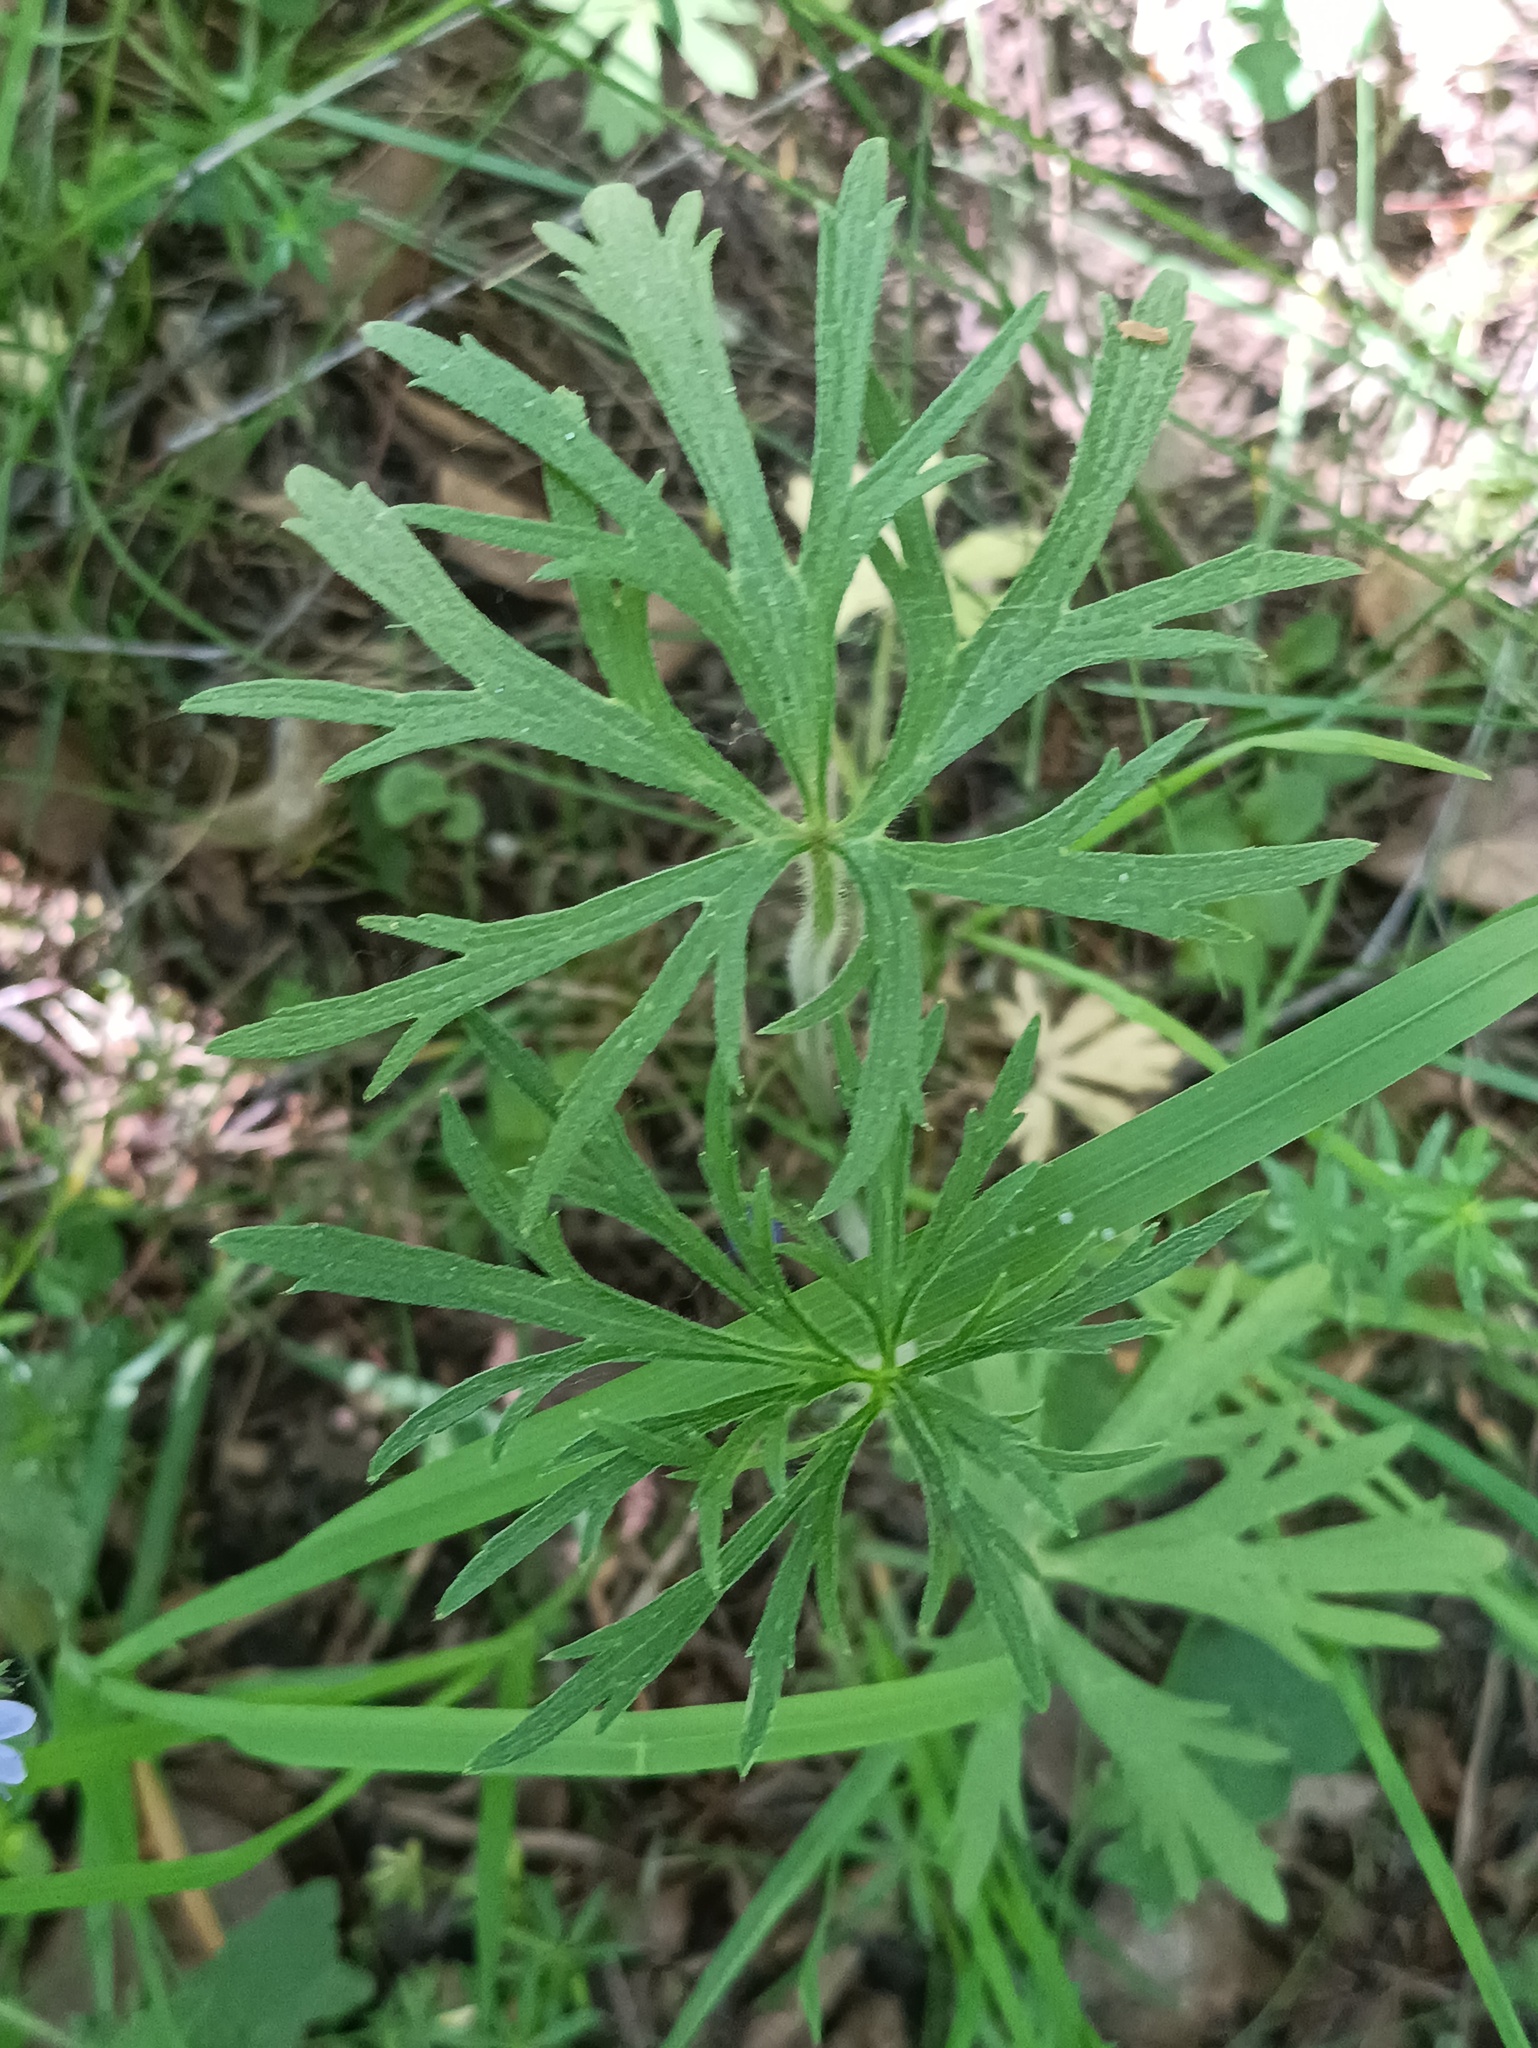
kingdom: Plantae
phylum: Tracheophyta
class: Magnoliopsida
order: Ranunculales
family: Ranunculaceae
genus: Ranunculus
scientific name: Ranunculus polyanthemos
